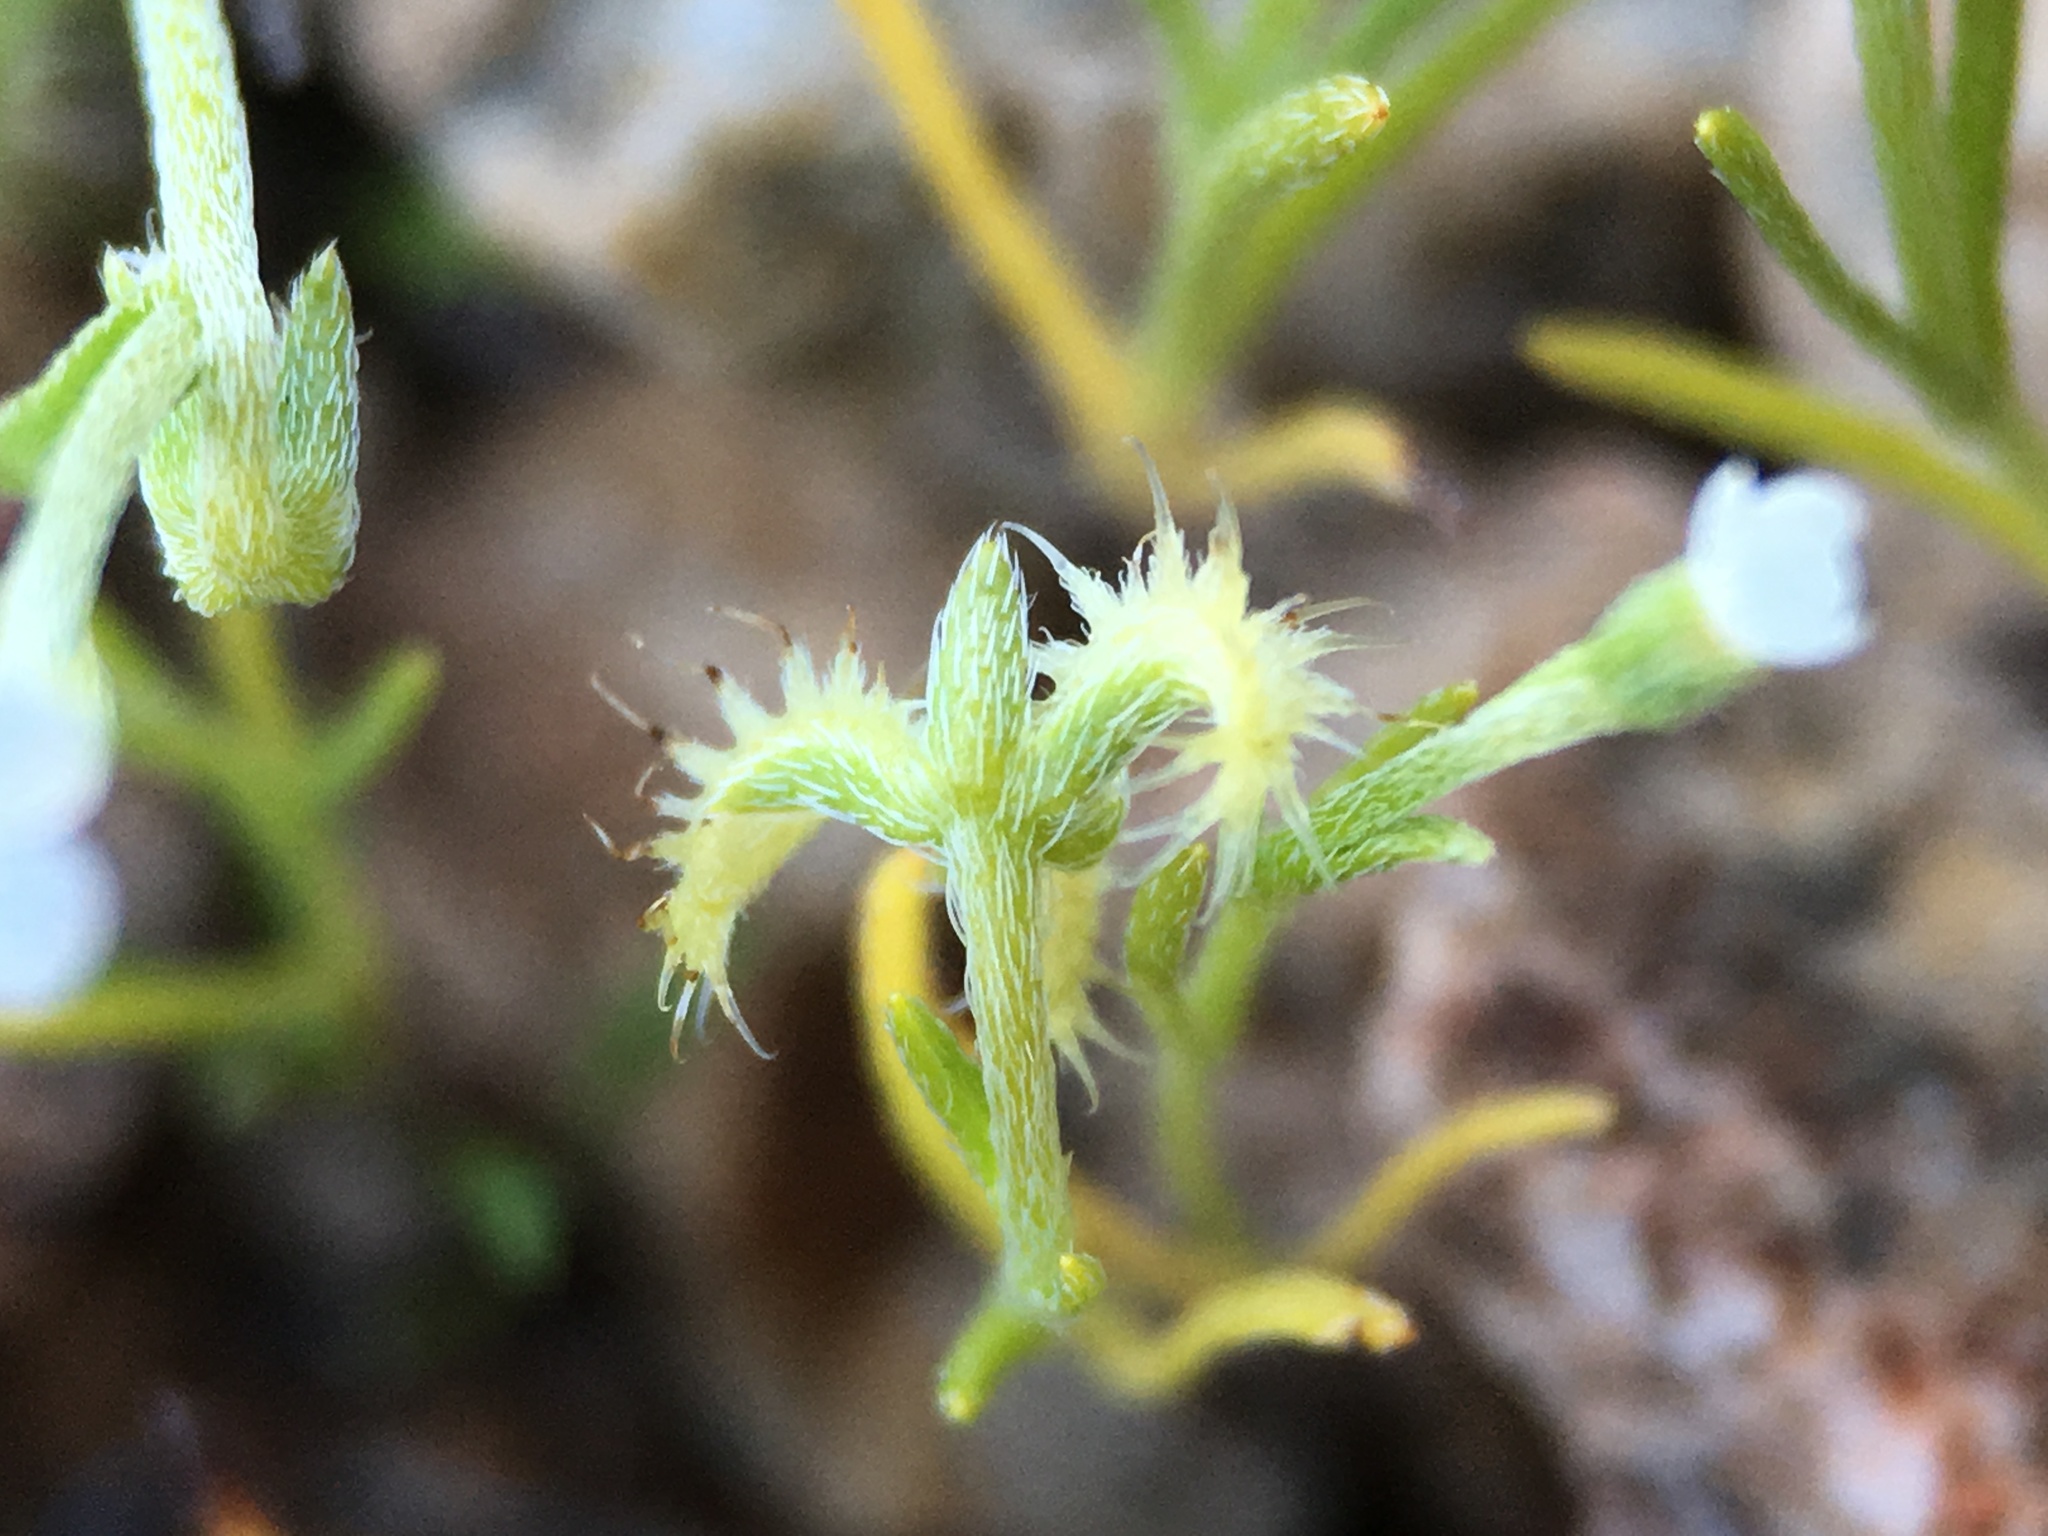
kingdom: Plantae
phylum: Tracheophyta
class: Magnoliopsida
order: Boraginales
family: Boraginaceae
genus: Pectocarya
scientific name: Pectocarya recurvata
